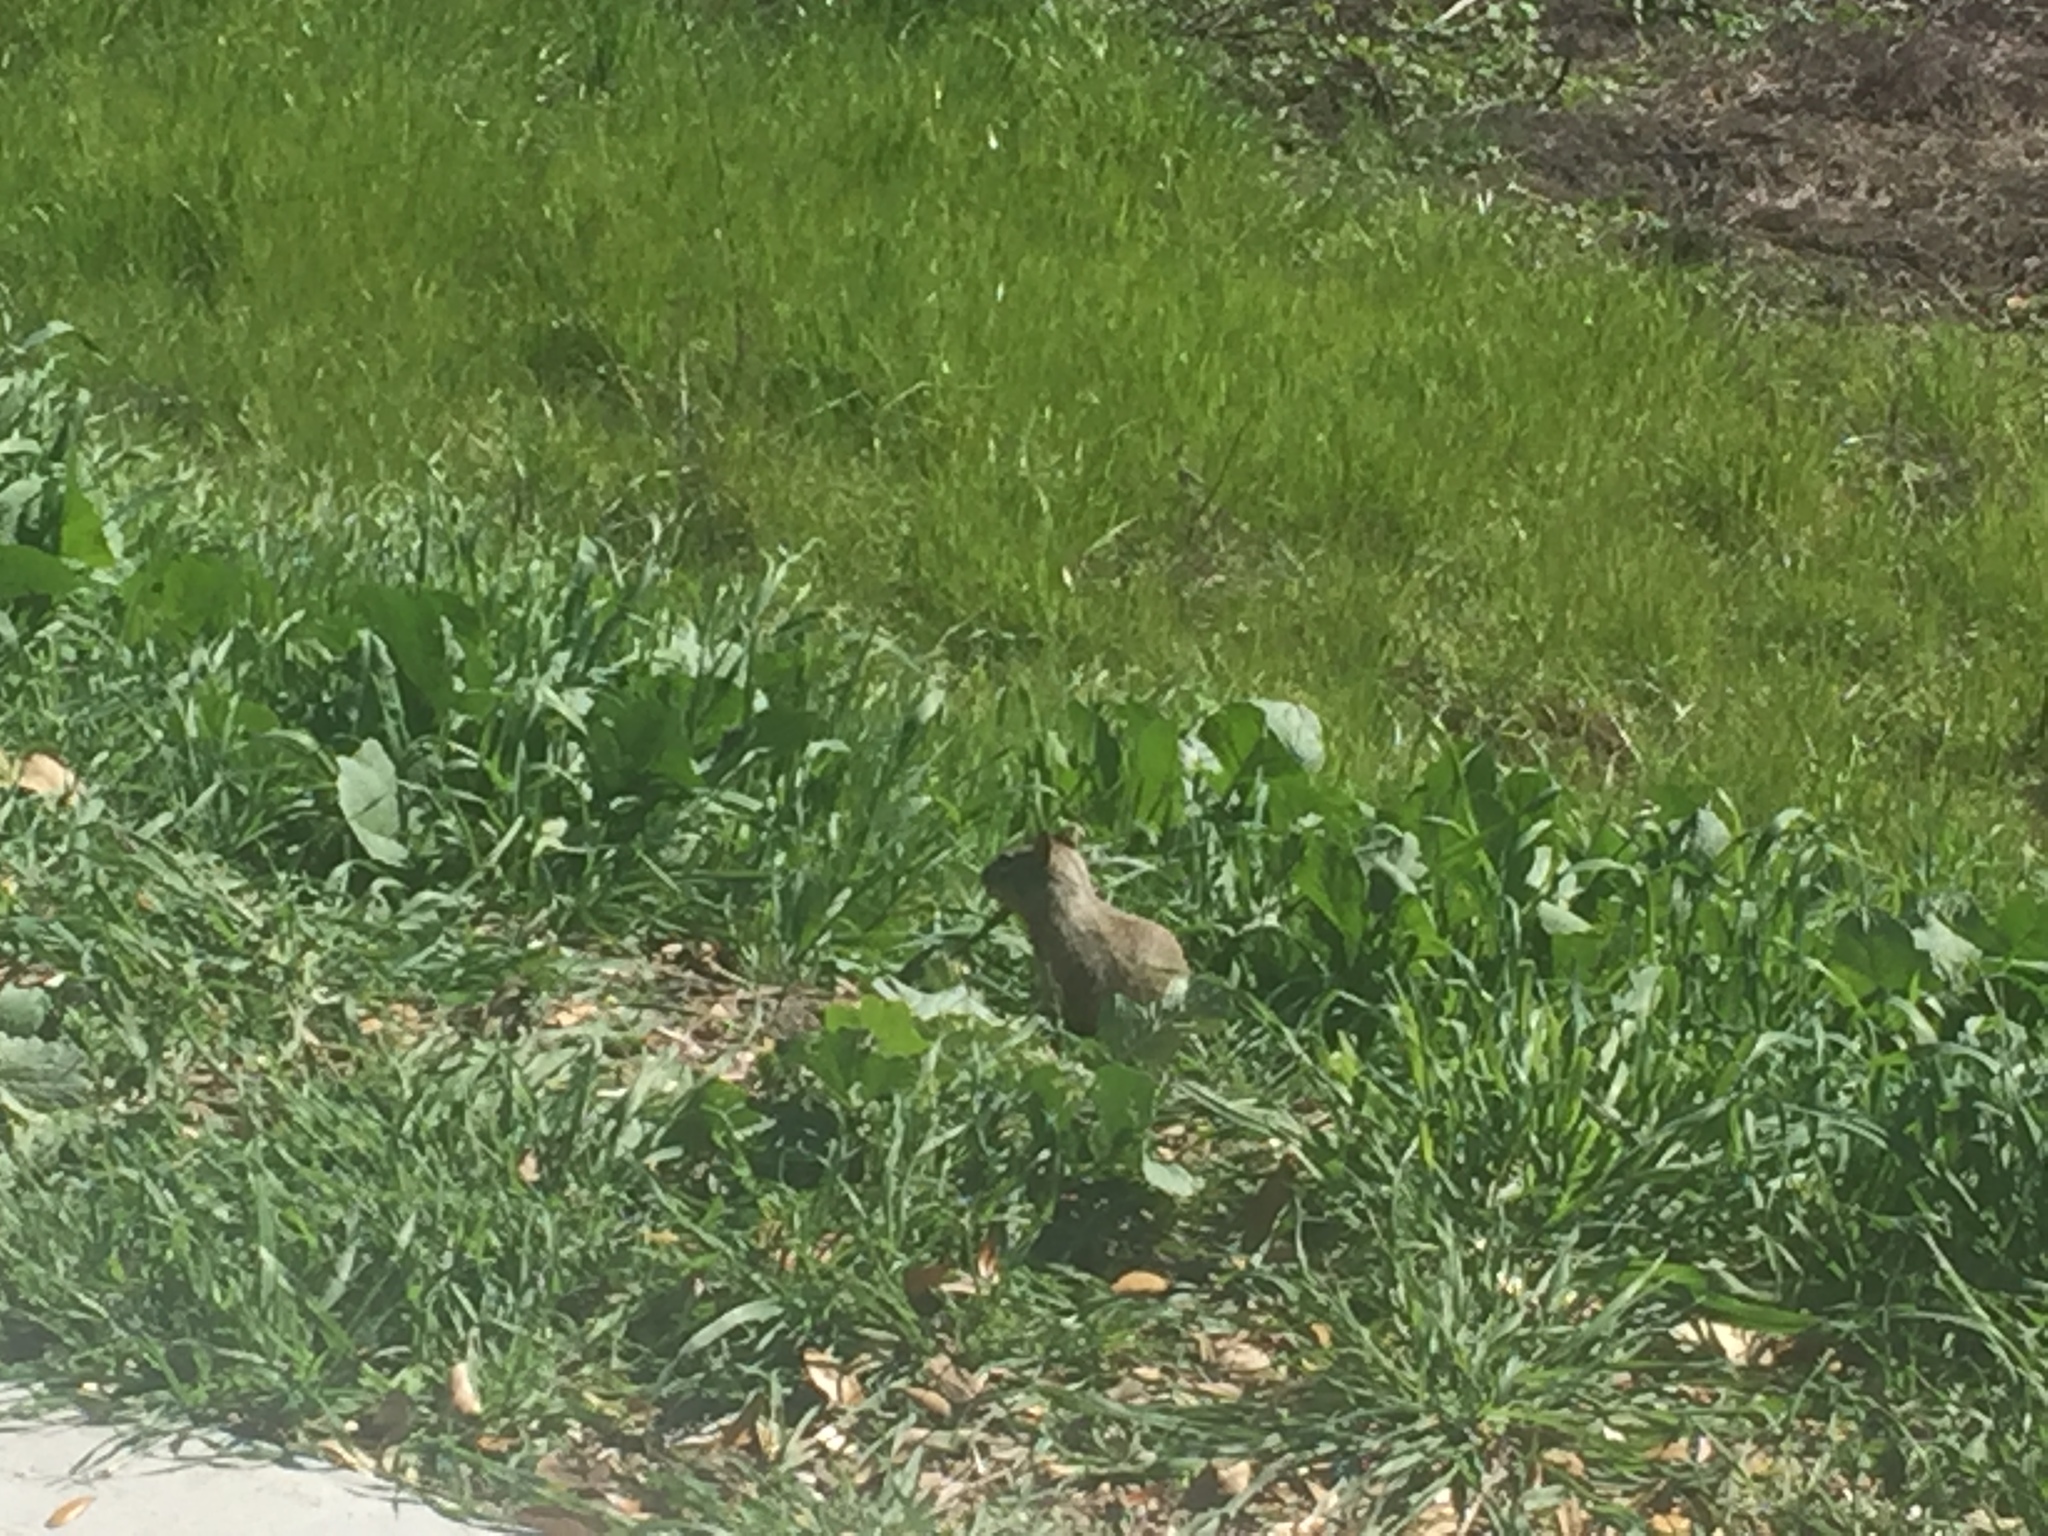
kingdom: Animalia
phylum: Chordata
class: Mammalia
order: Rodentia
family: Sciuridae
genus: Otospermophilus
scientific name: Otospermophilus beecheyi
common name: California ground squirrel
